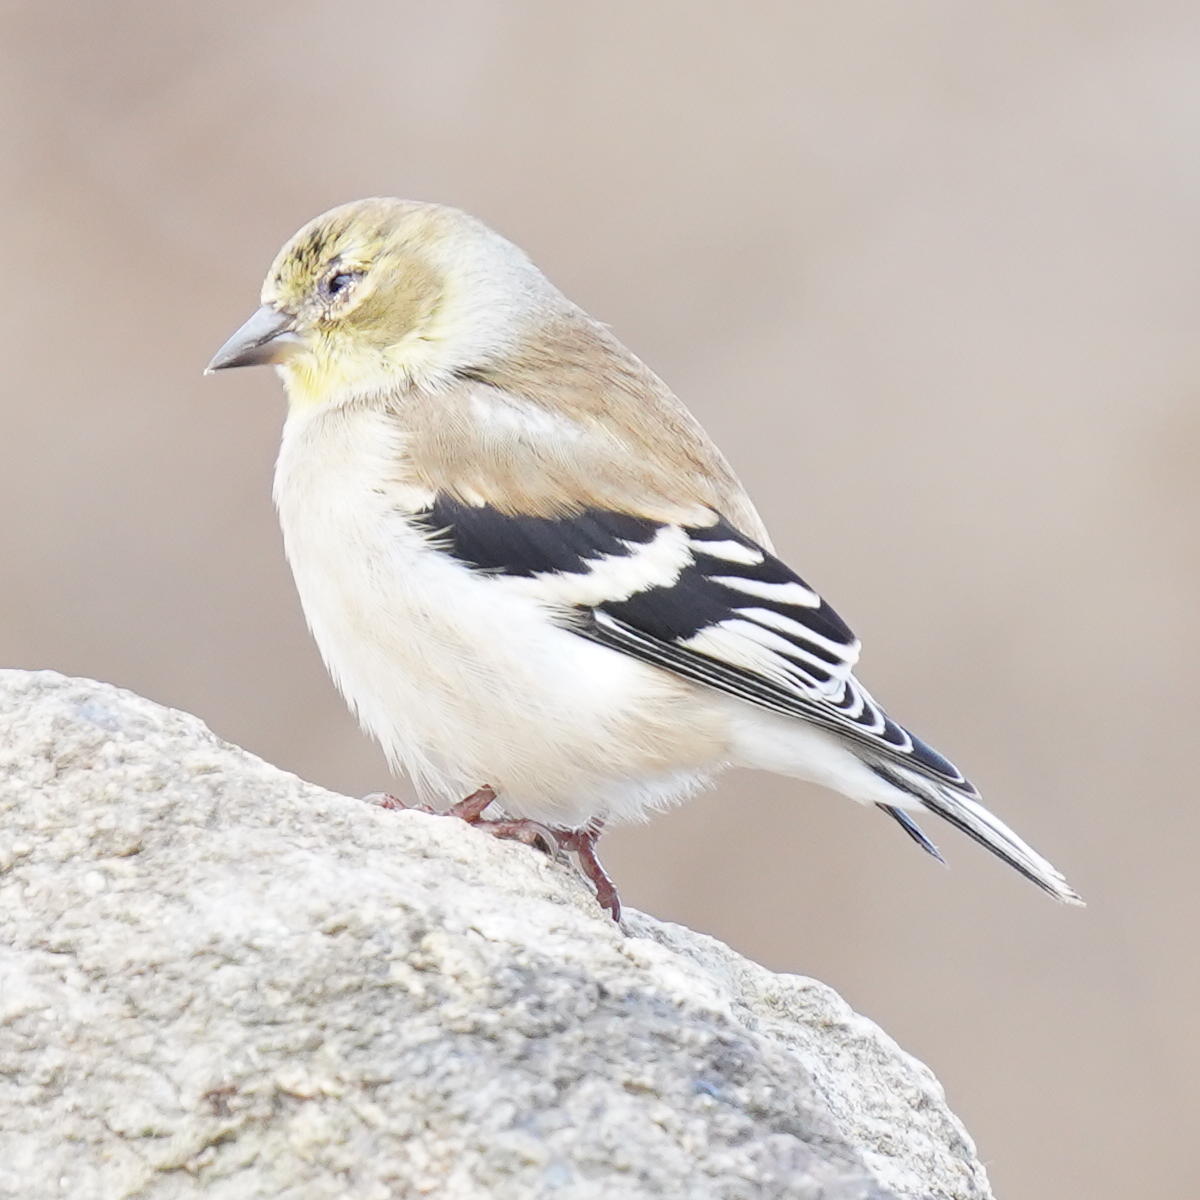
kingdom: Animalia
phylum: Chordata
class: Aves
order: Passeriformes
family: Fringillidae
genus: Spinus
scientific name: Spinus tristis
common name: American goldfinch
